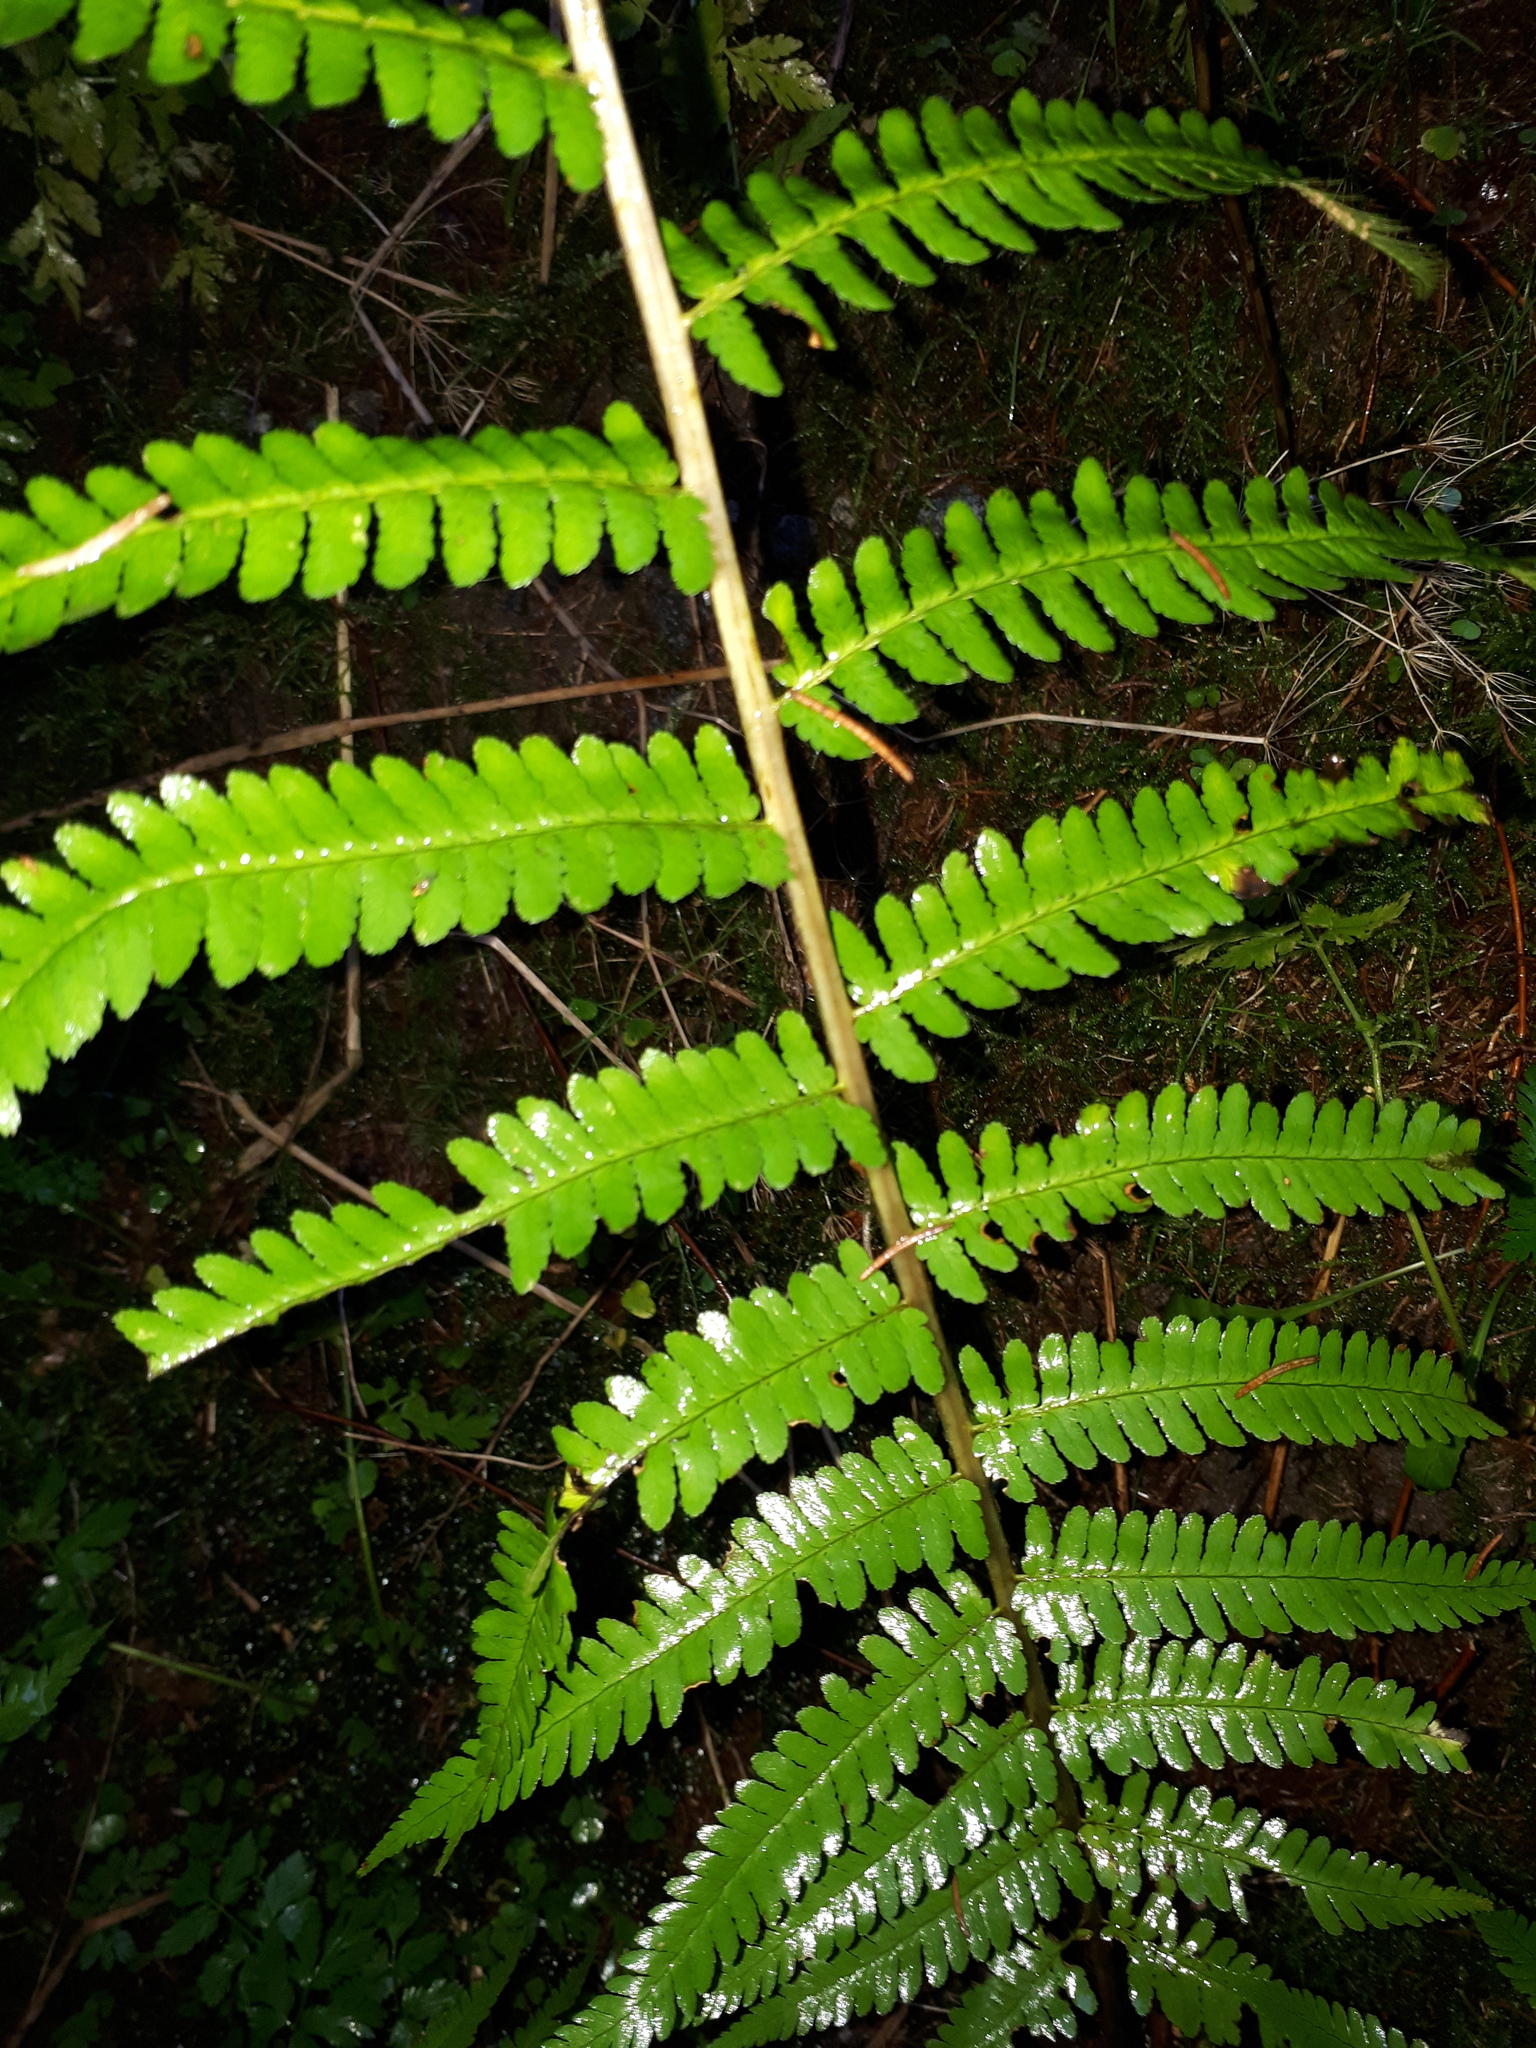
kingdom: Plantae
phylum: Tracheophyta
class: Polypodiopsida
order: Polypodiales
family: Dryopteridaceae
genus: Dryopteris
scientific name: Dryopteris filix-mas
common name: Male fern
